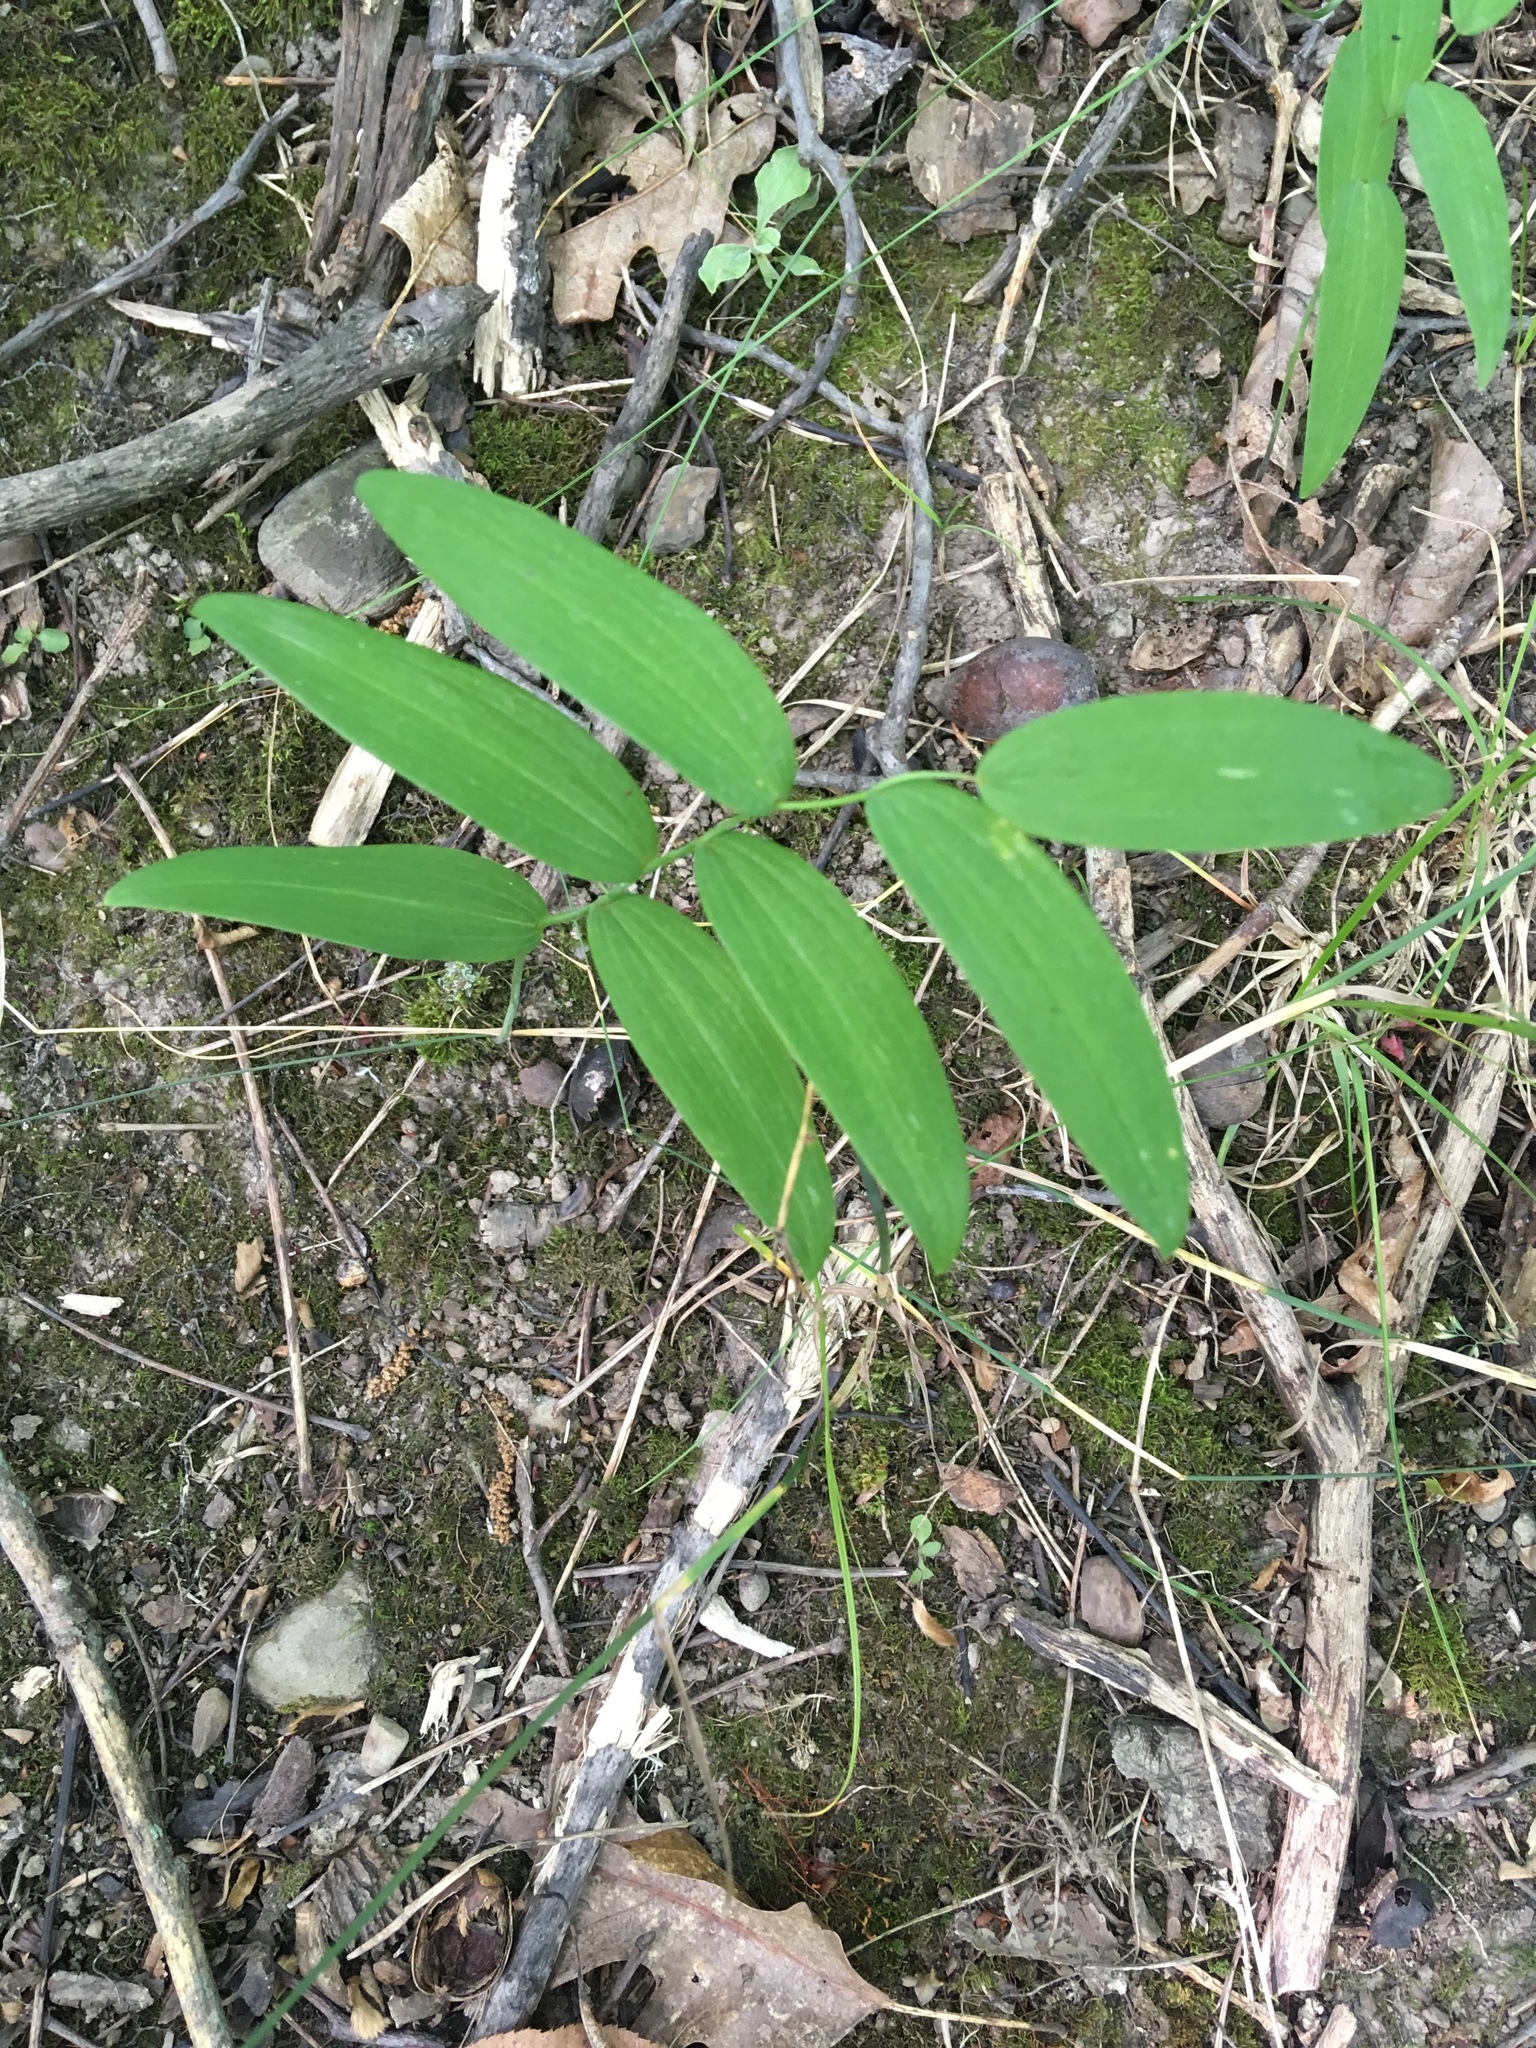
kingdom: Plantae
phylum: Tracheophyta
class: Liliopsida
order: Asparagales
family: Asparagaceae
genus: Polygonatum
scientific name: Polygonatum biflorum
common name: American solomon's-seal
